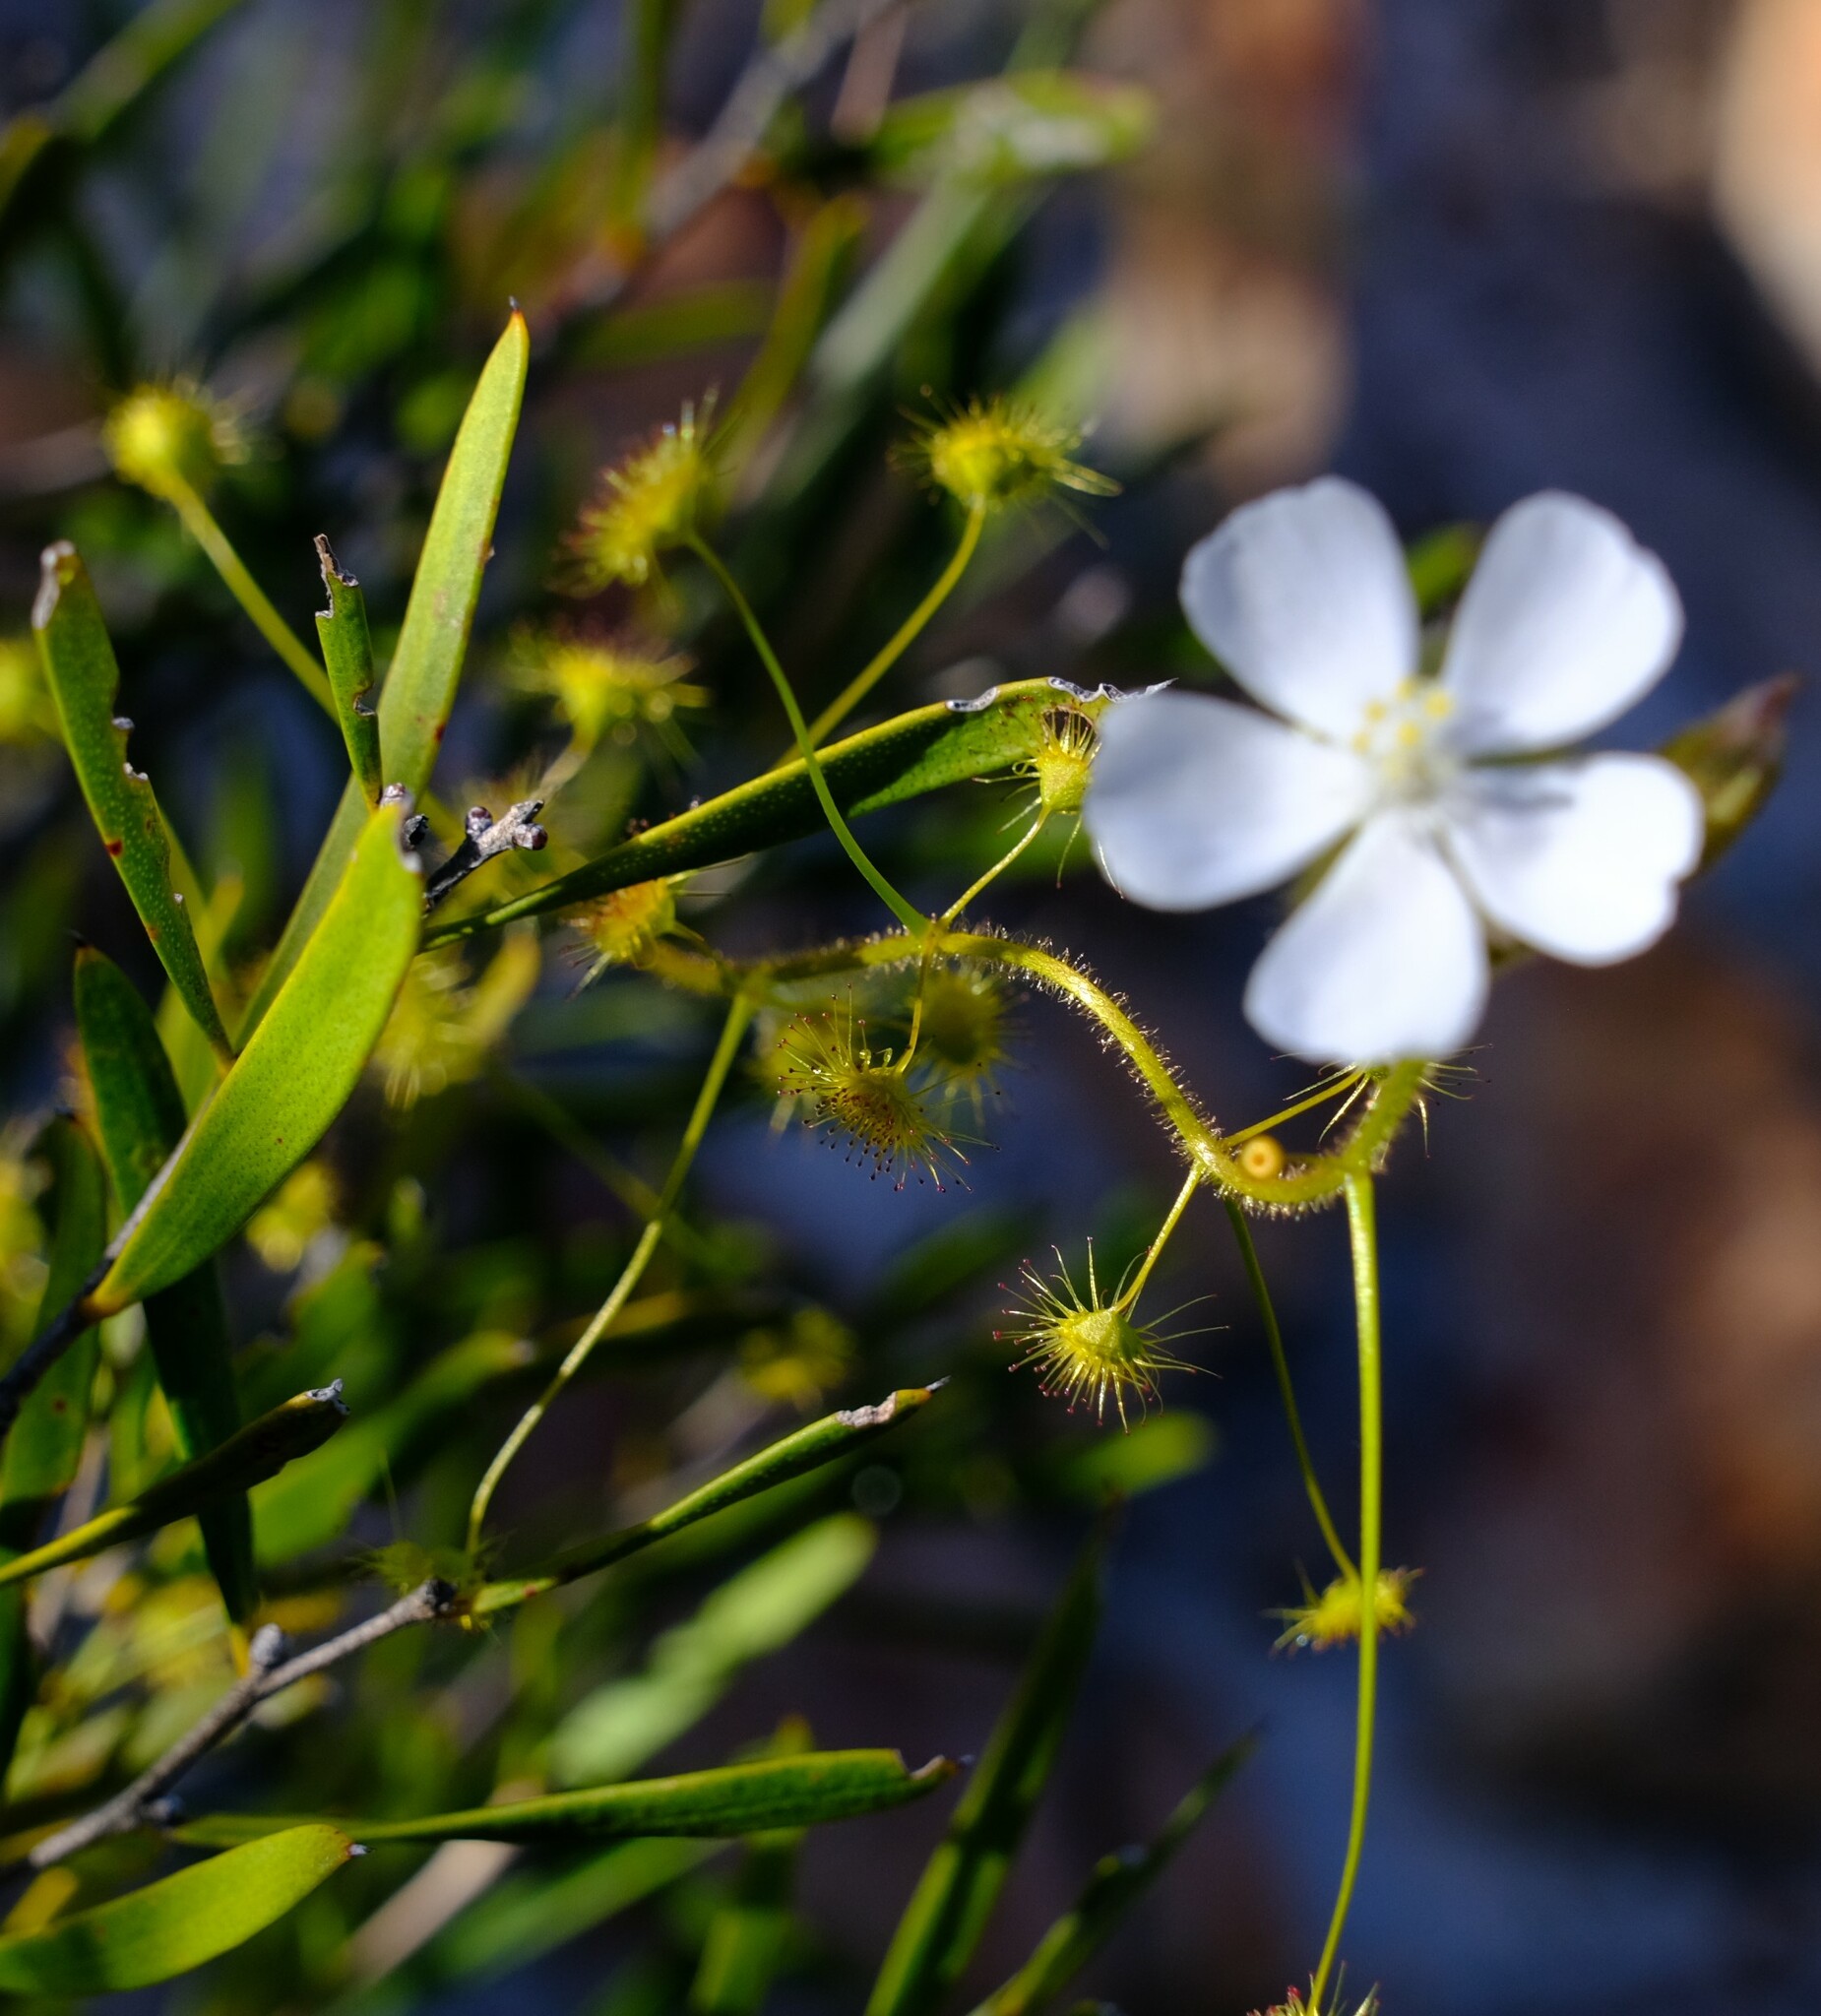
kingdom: Plantae
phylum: Tracheophyta
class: Magnoliopsida
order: Caryophyllales
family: Droseraceae
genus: Drosera
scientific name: Drosera hirsuta
